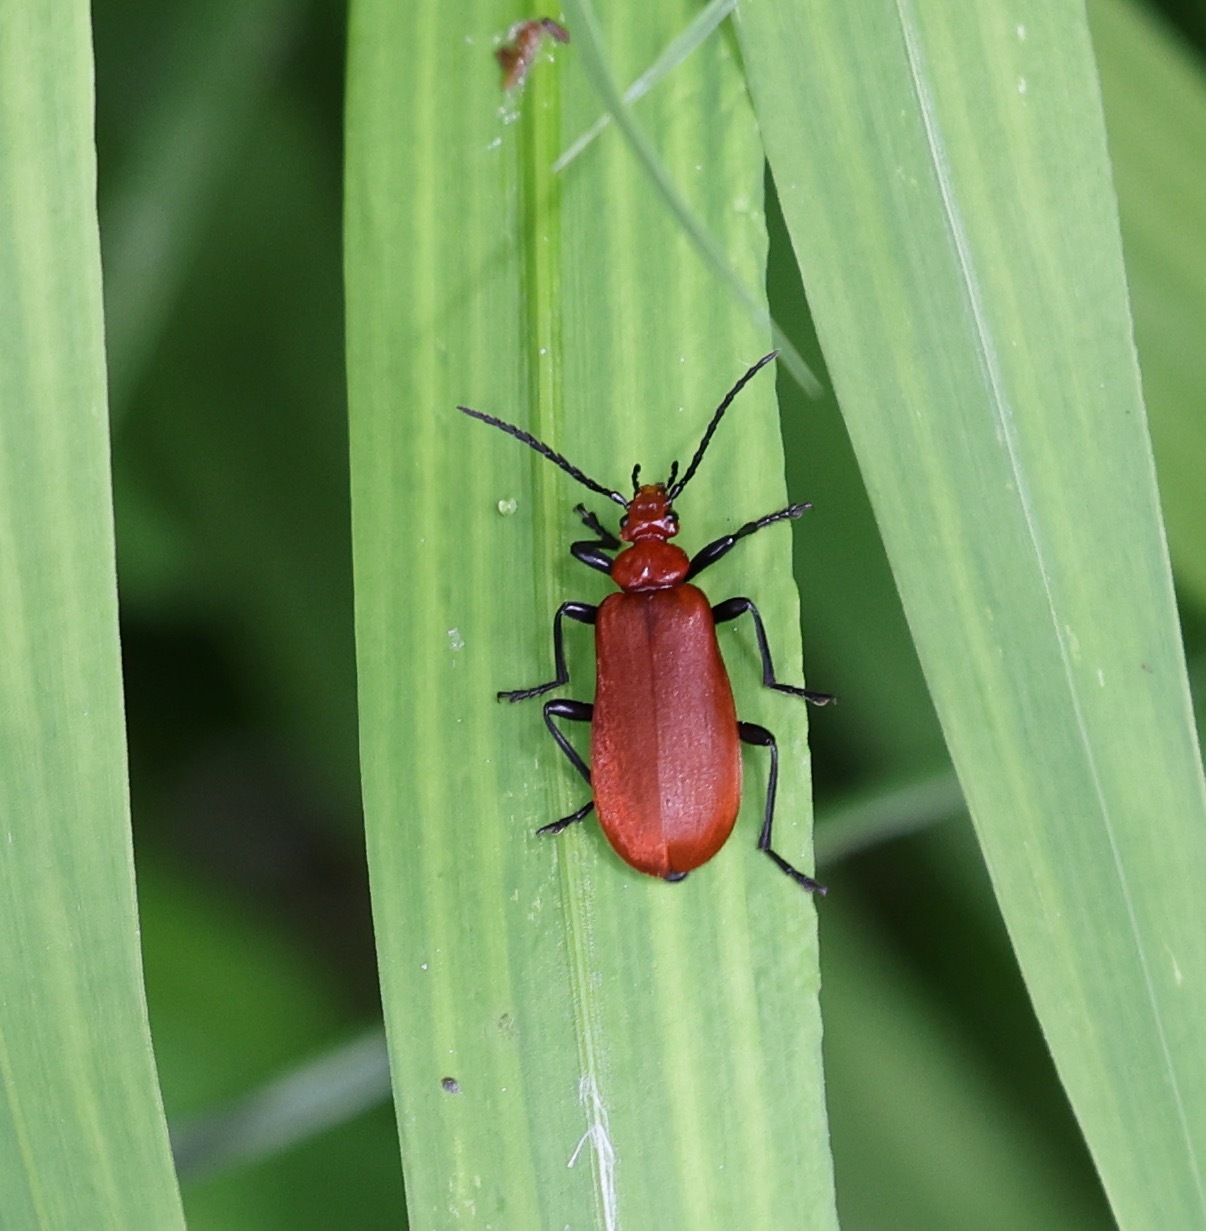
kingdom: Animalia
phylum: Arthropoda
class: Insecta
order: Coleoptera
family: Pyrochroidae
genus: Pyrochroa
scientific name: Pyrochroa serraticornis
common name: Red-headed cardinal beetle
